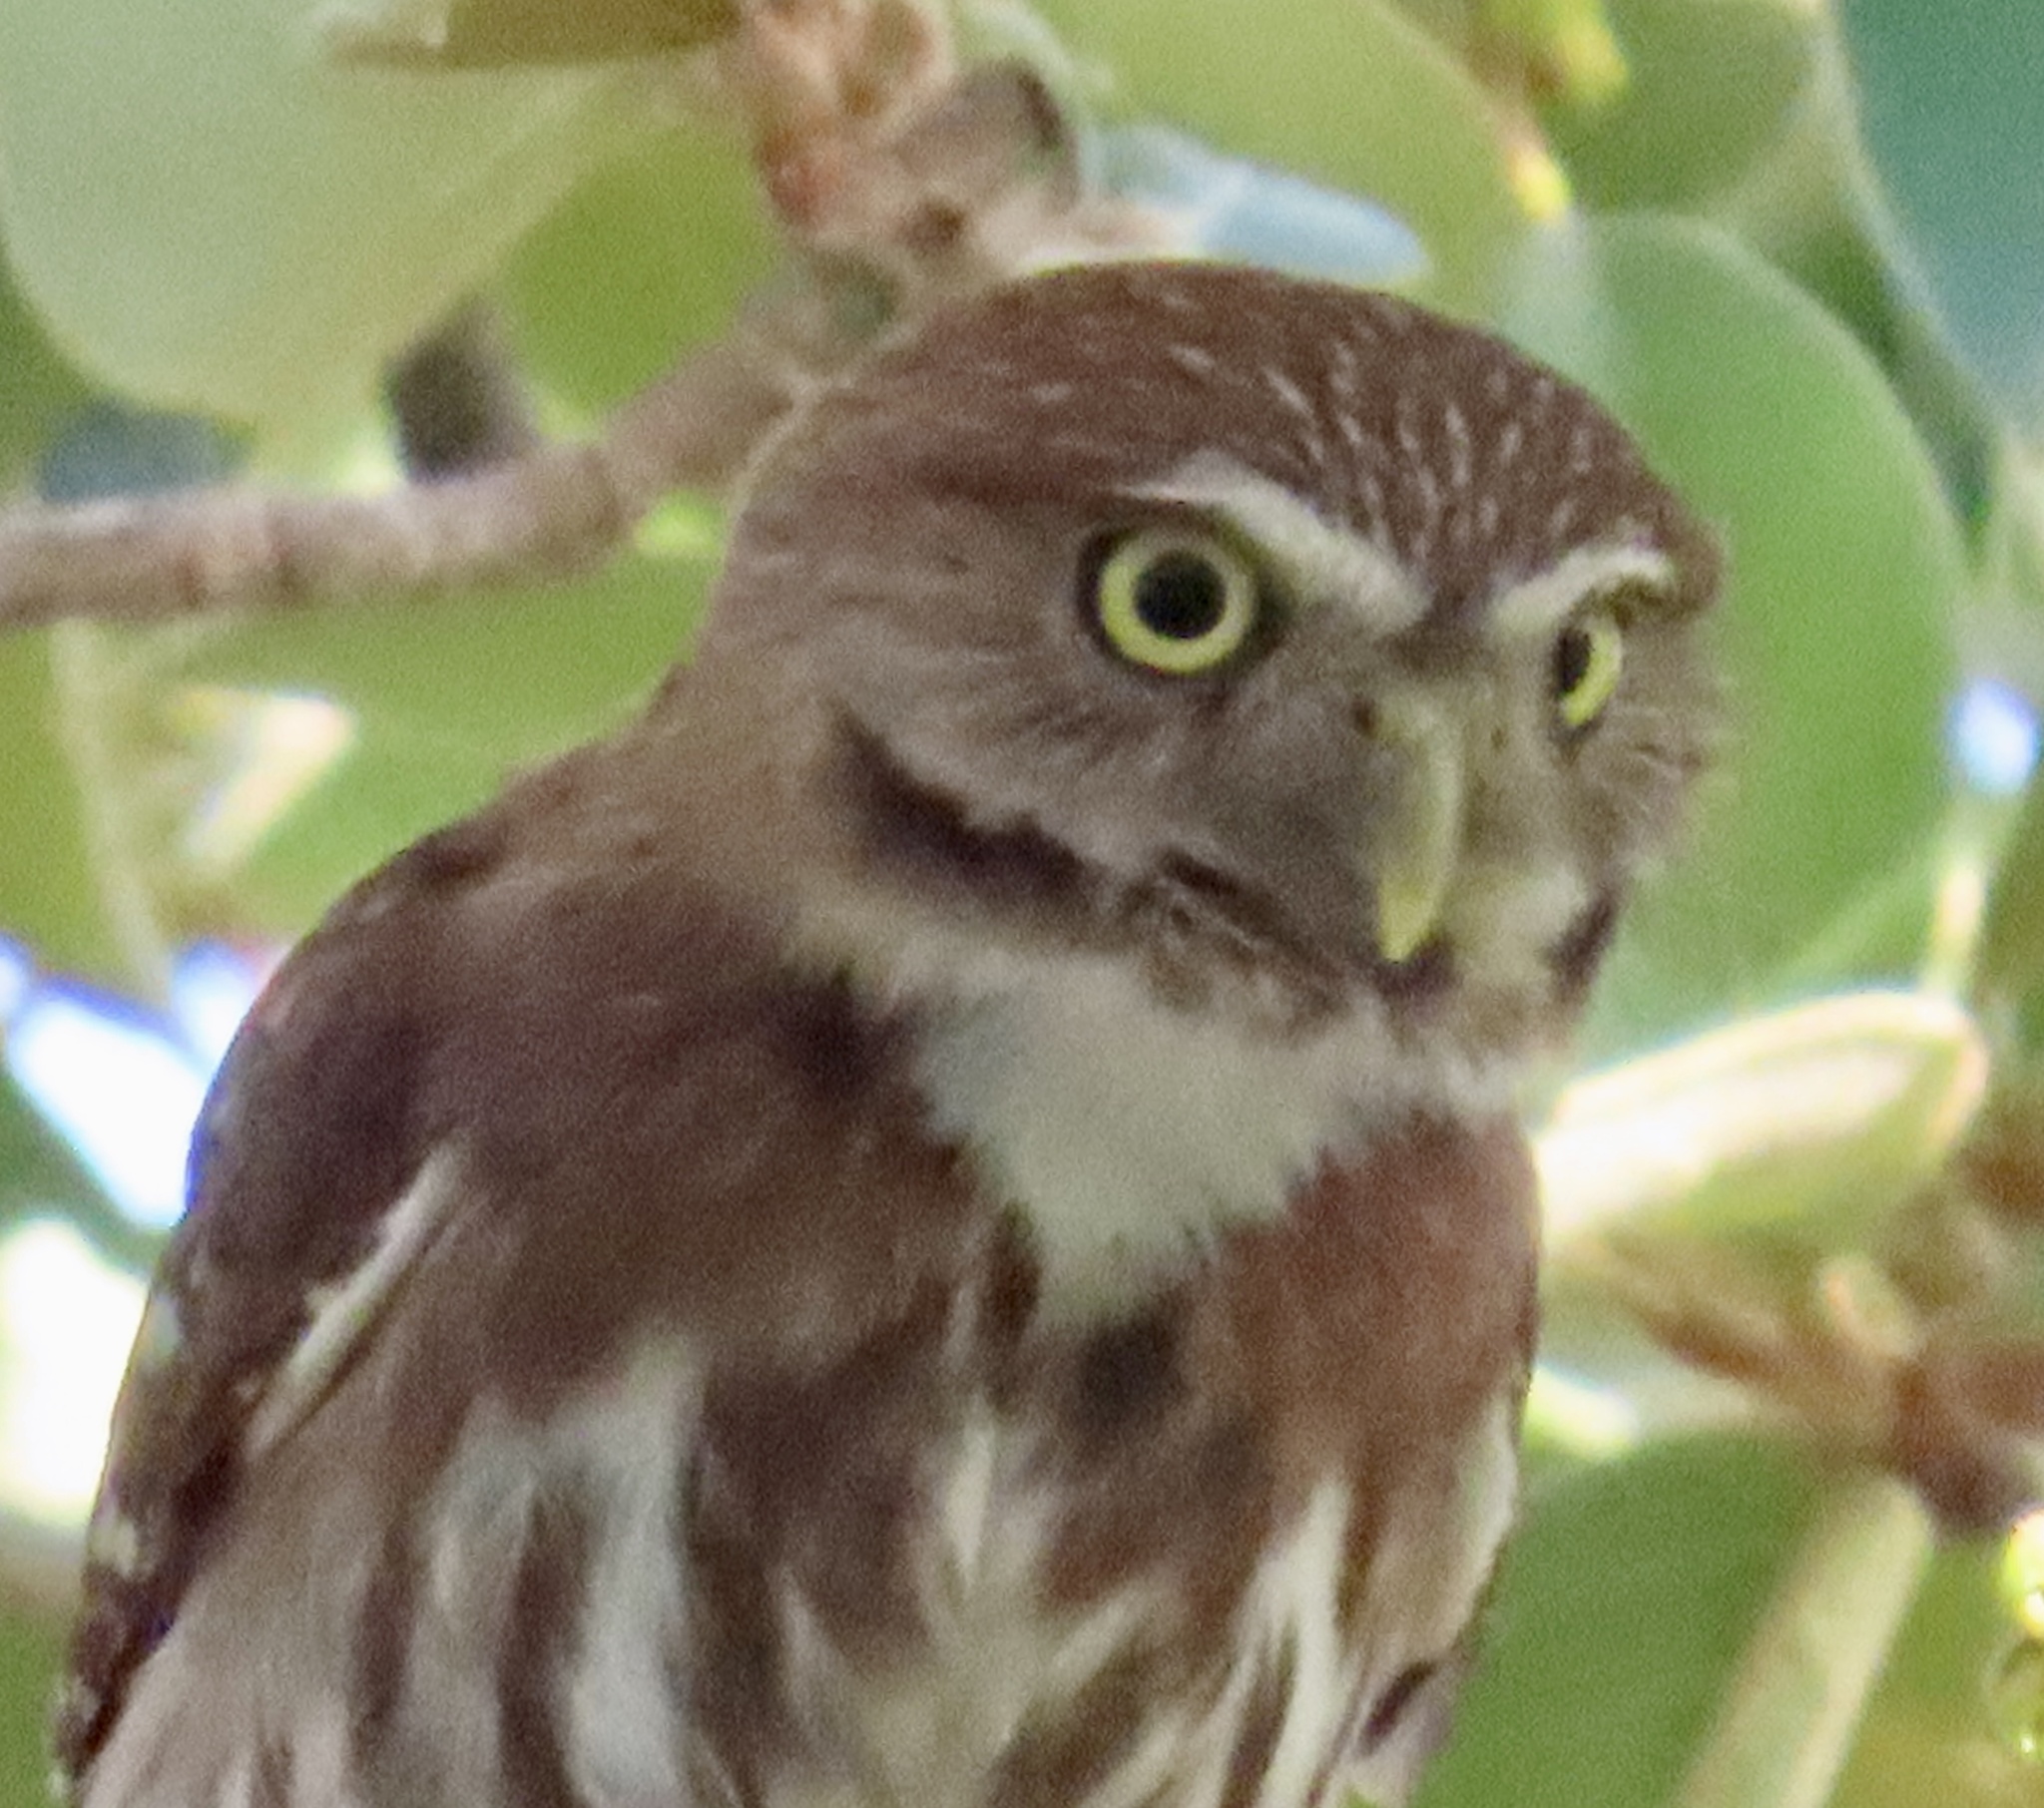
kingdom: Animalia
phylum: Chordata
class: Aves
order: Strigiformes
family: Strigidae
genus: Glaucidium
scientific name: Glaucidium brasilianum
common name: Ferruginous pygmy-owl
